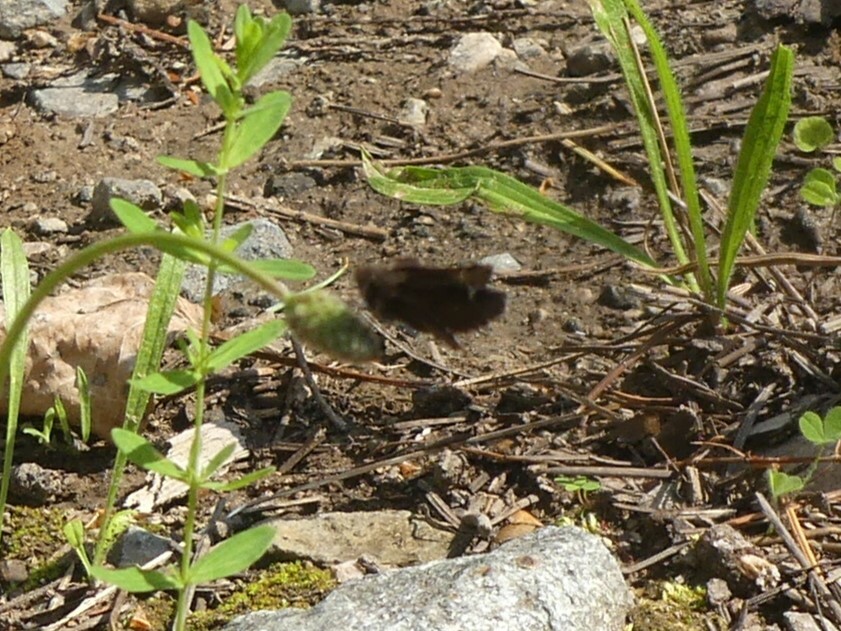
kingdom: Animalia
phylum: Arthropoda
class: Insecta
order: Lepidoptera
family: Hesperiidae
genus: Mastor
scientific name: Mastor vialis
